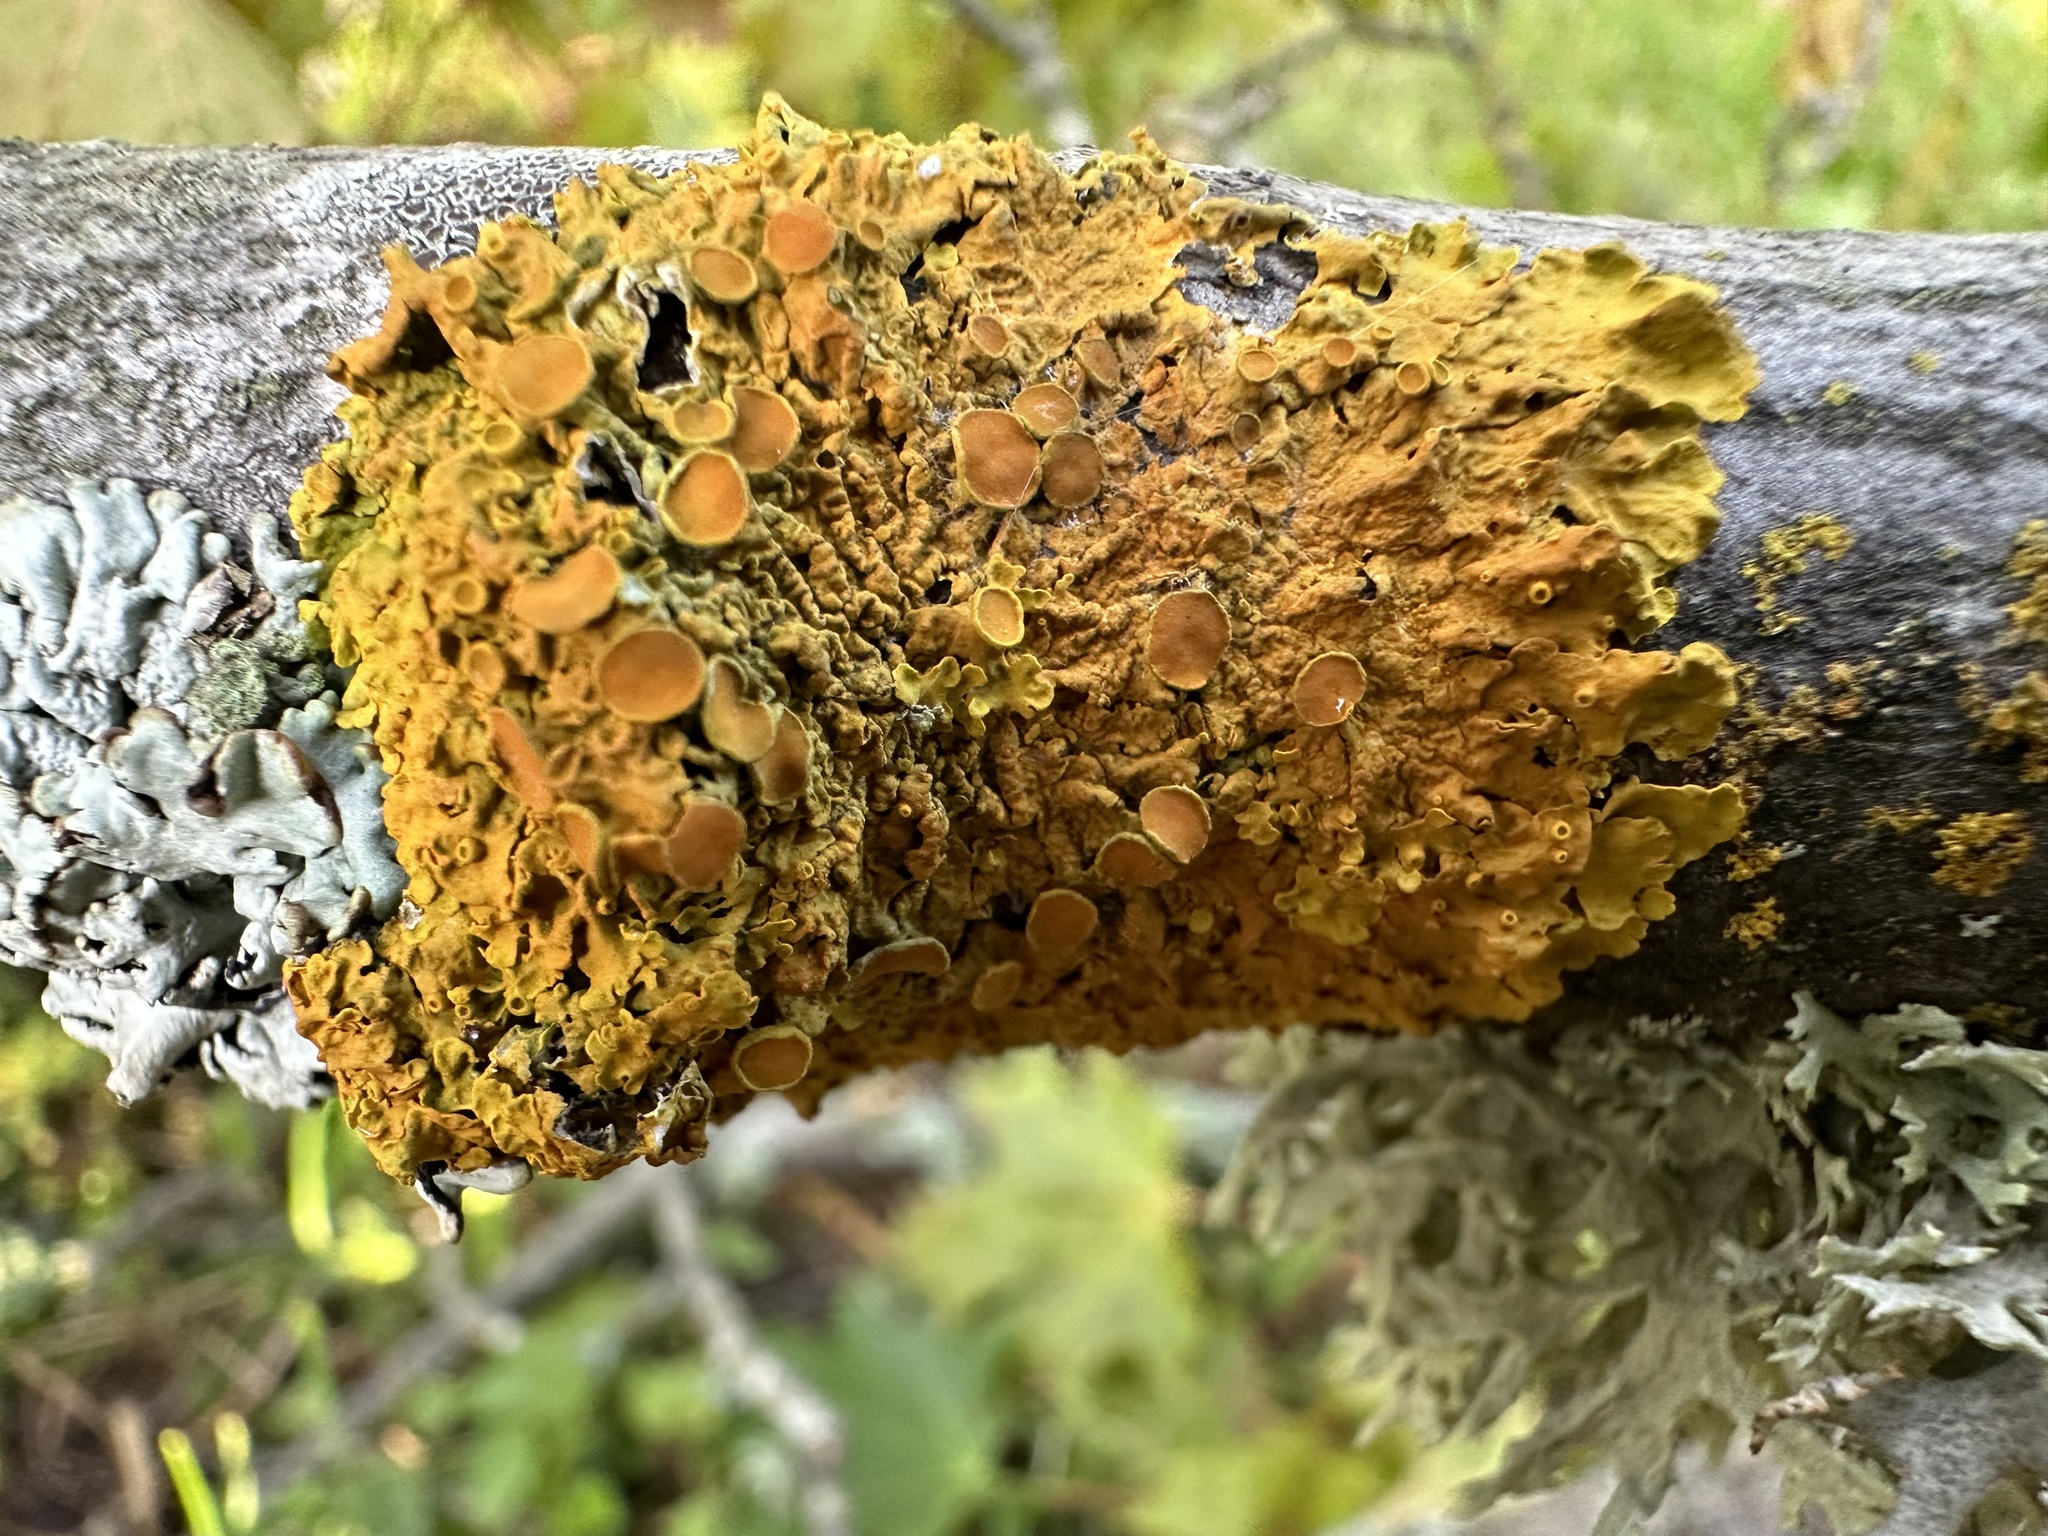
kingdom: Fungi
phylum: Ascomycota
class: Lecanoromycetes
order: Teloschistales
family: Teloschistaceae
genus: Xanthoria
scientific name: Xanthoria parietina
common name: Common orange lichen
